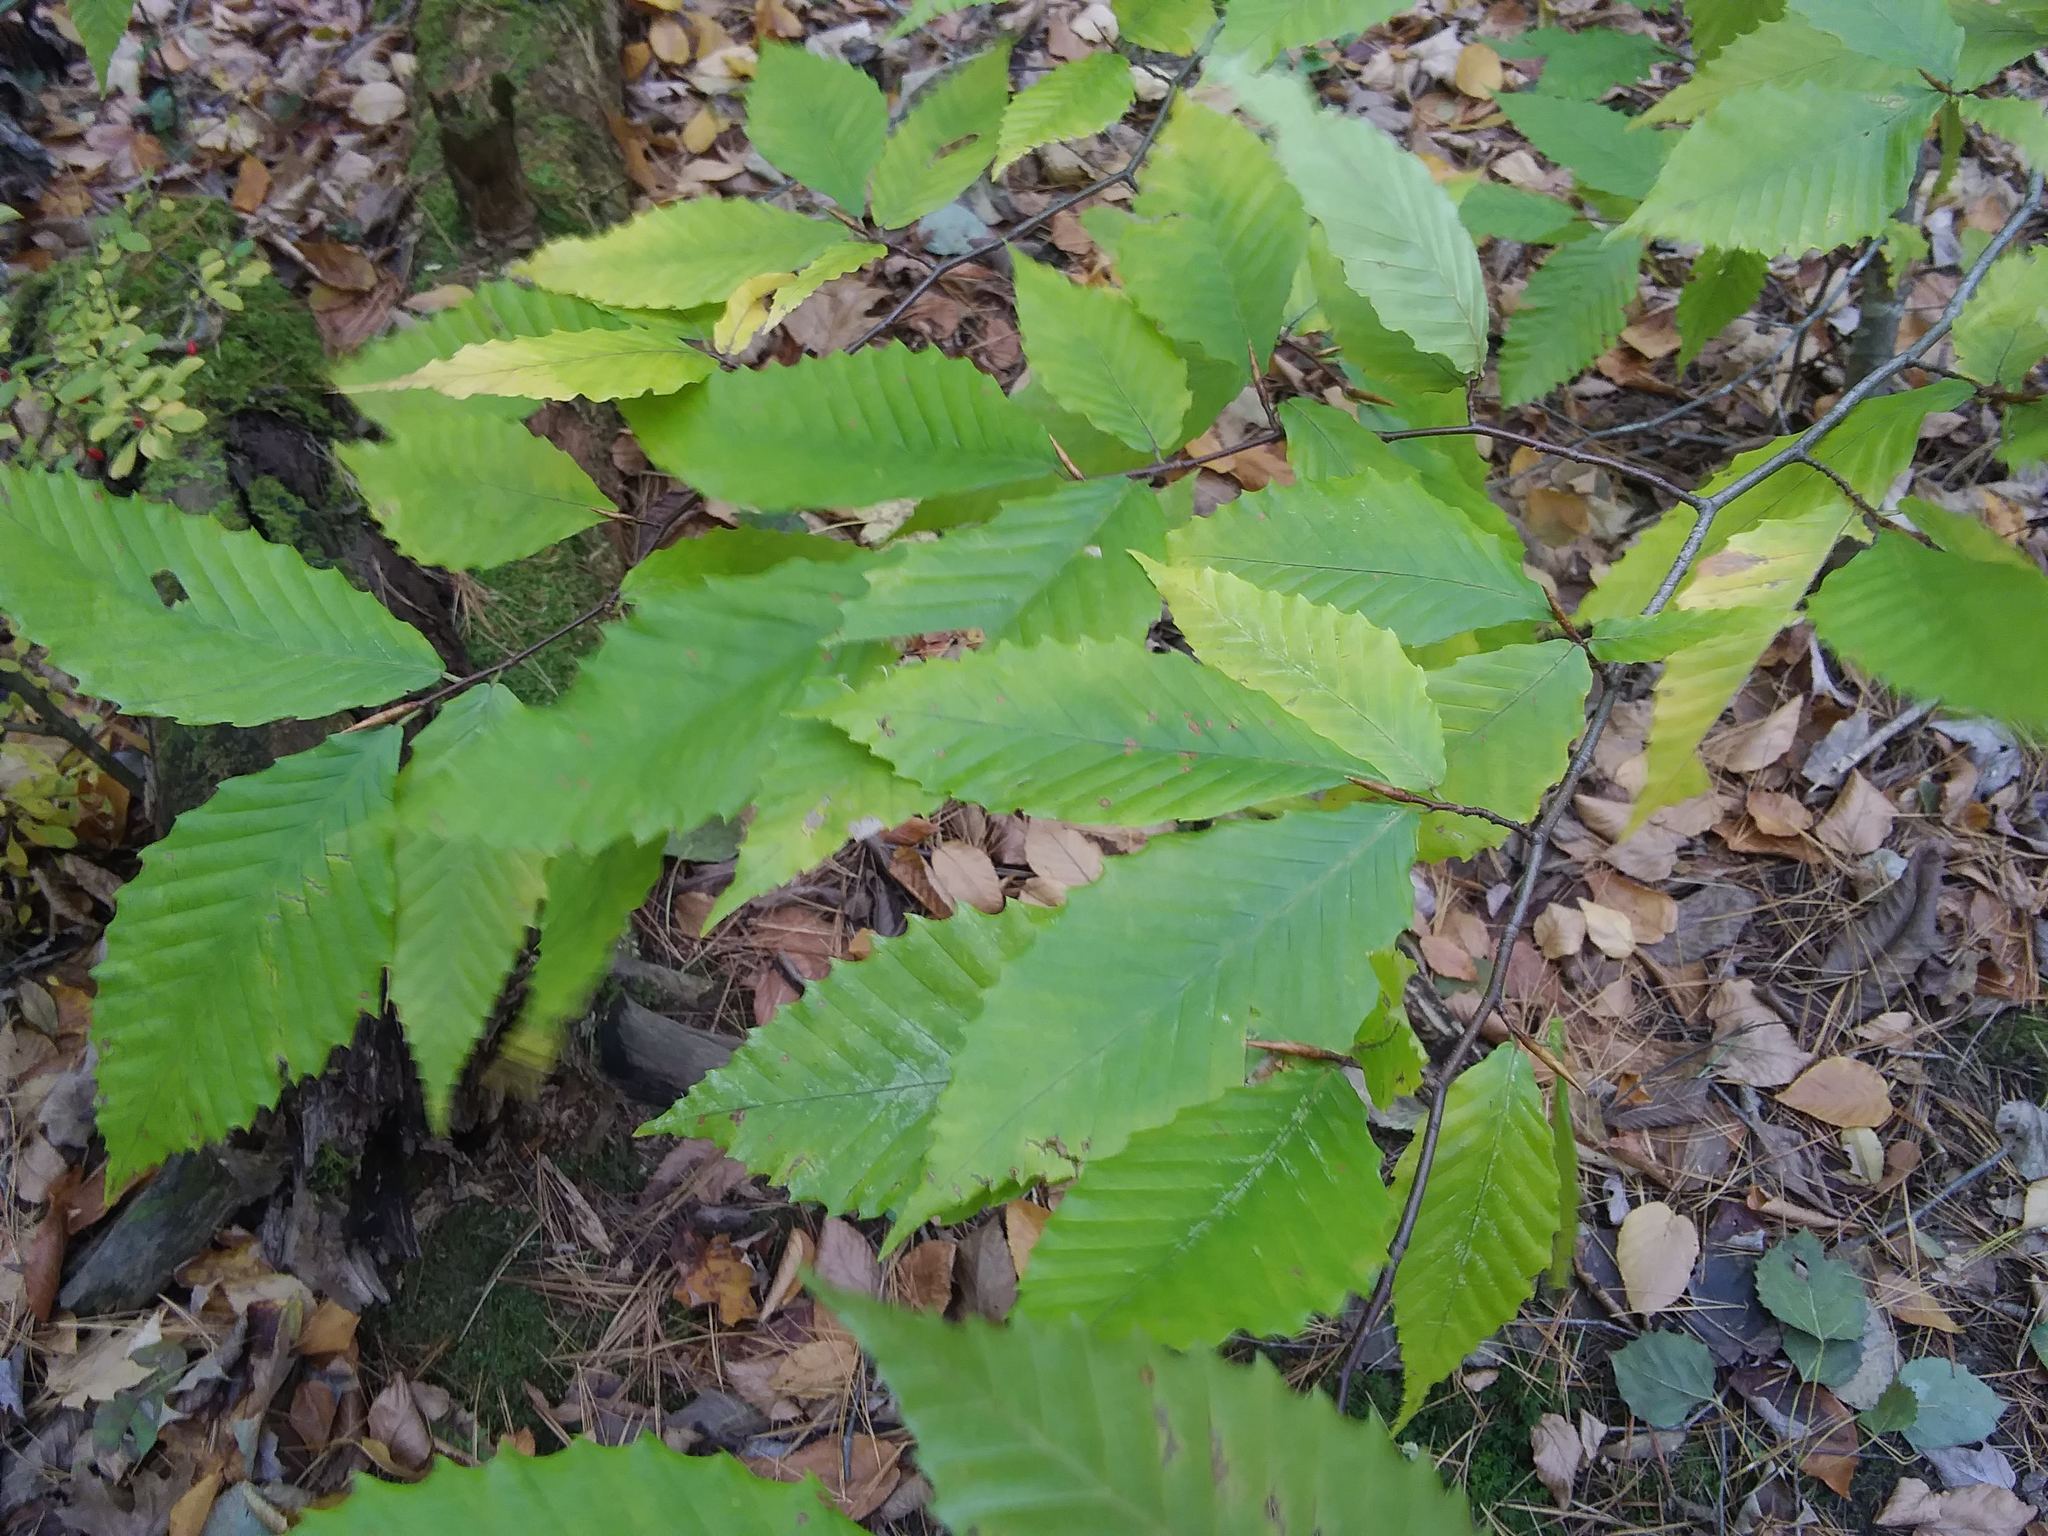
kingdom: Plantae
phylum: Tracheophyta
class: Magnoliopsida
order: Fagales
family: Fagaceae
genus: Fagus
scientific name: Fagus grandifolia
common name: American beech
